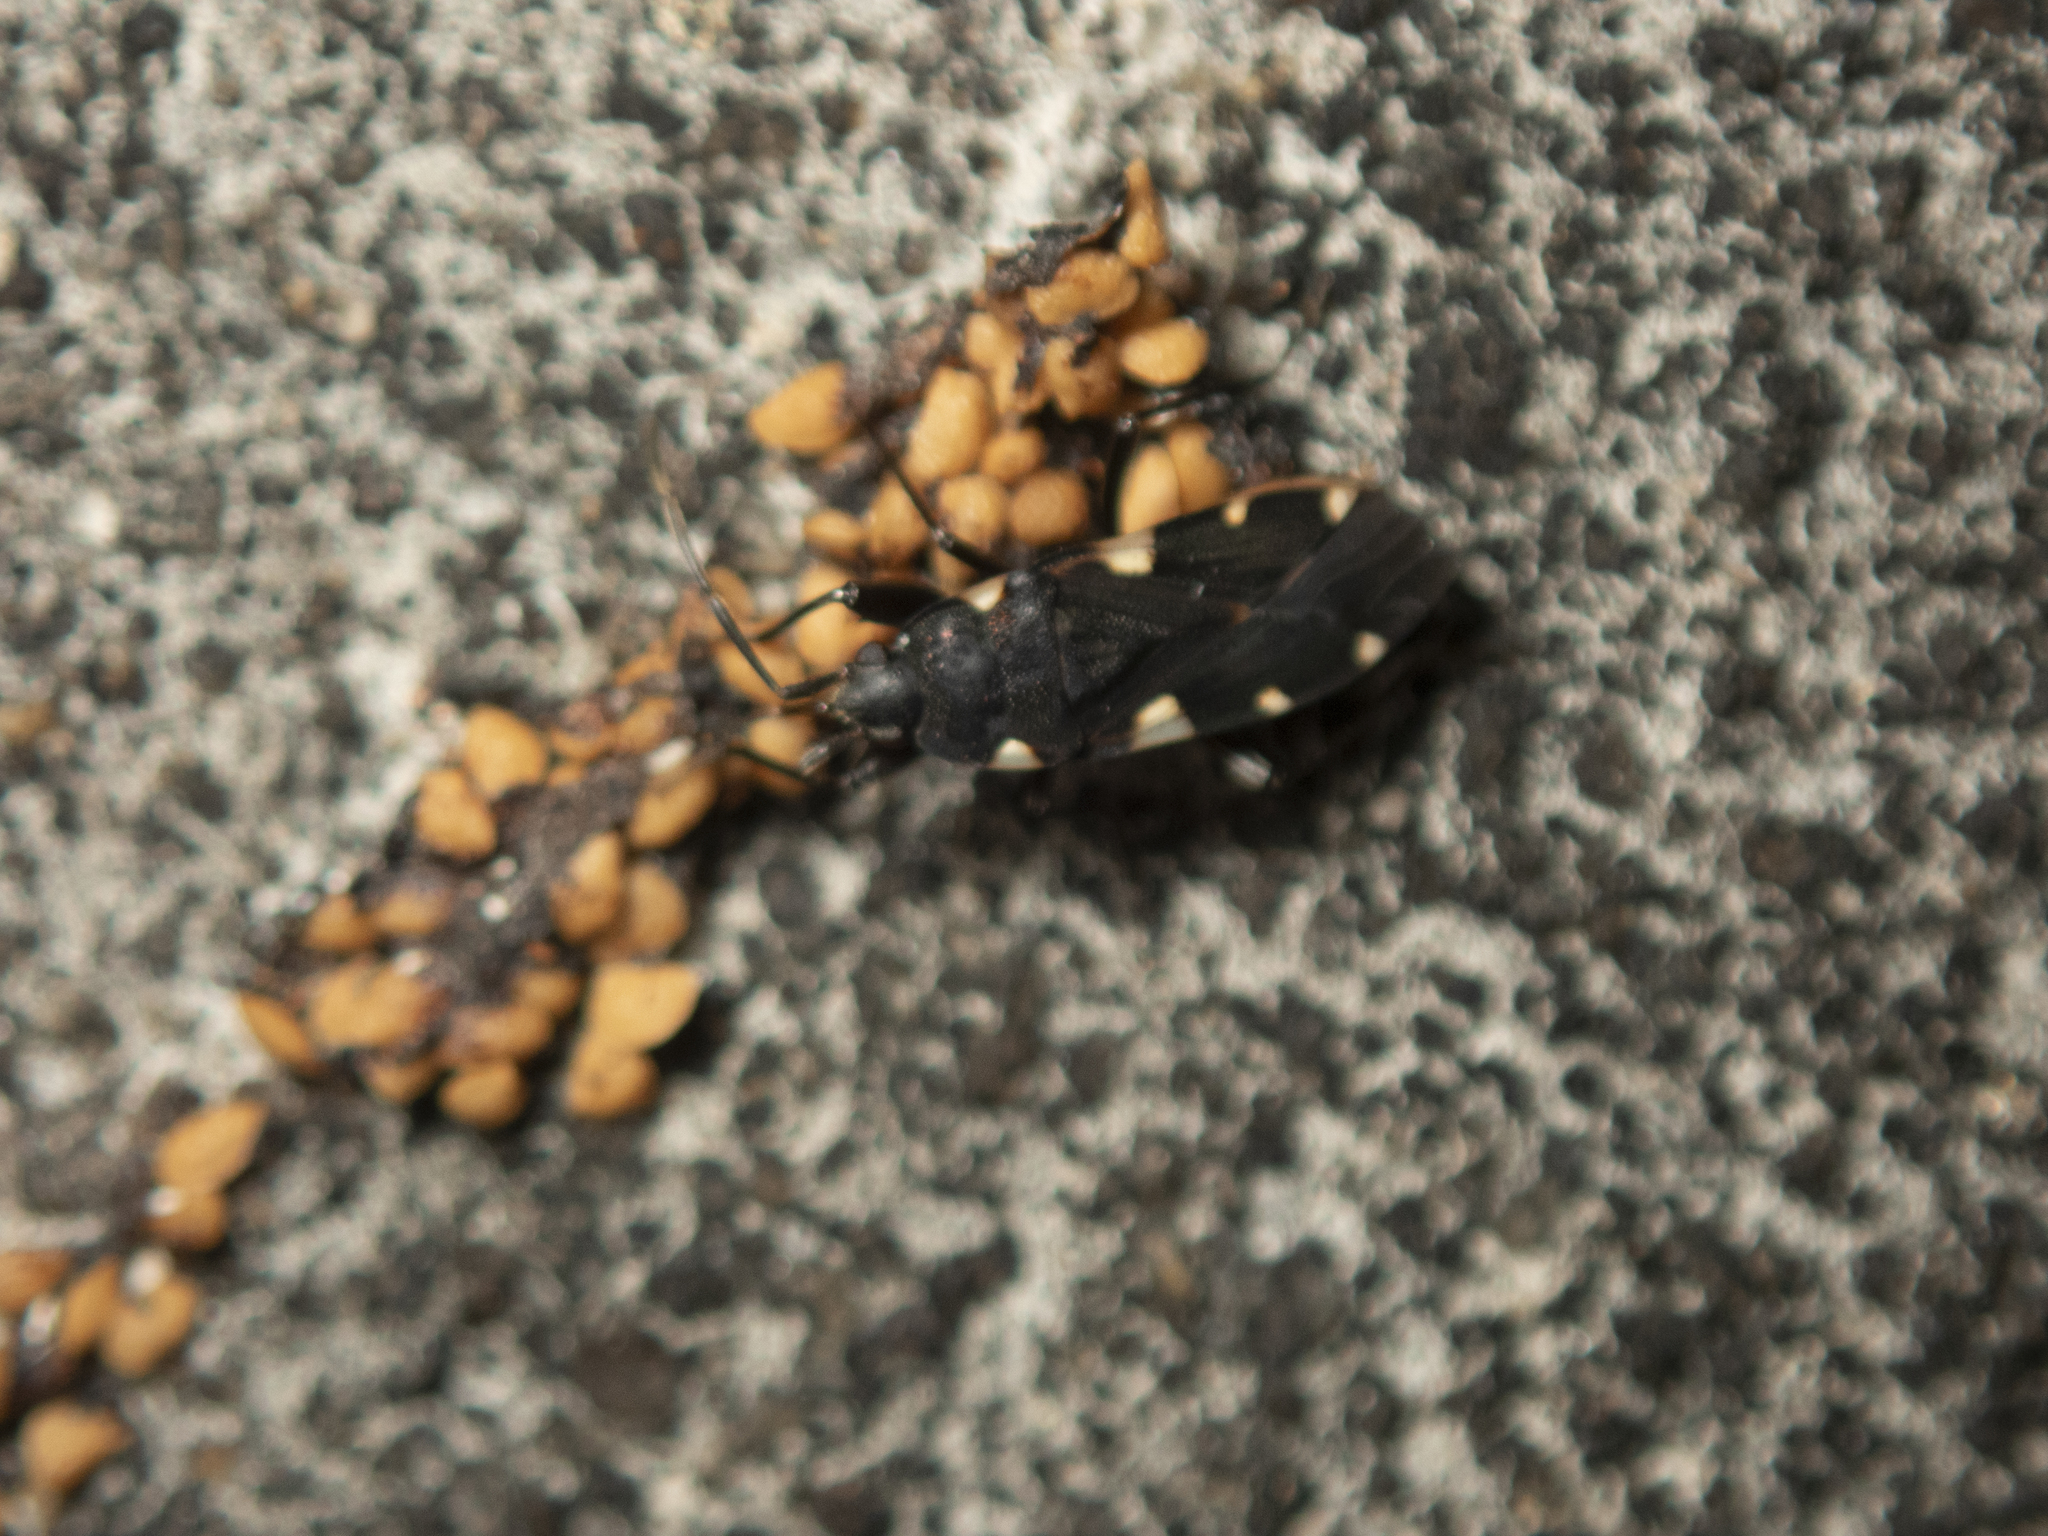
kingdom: Animalia
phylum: Arthropoda
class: Insecta
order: Hemiptera
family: Rhyparochromidae
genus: Potamiaena
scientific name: Potamiaena aurifera
